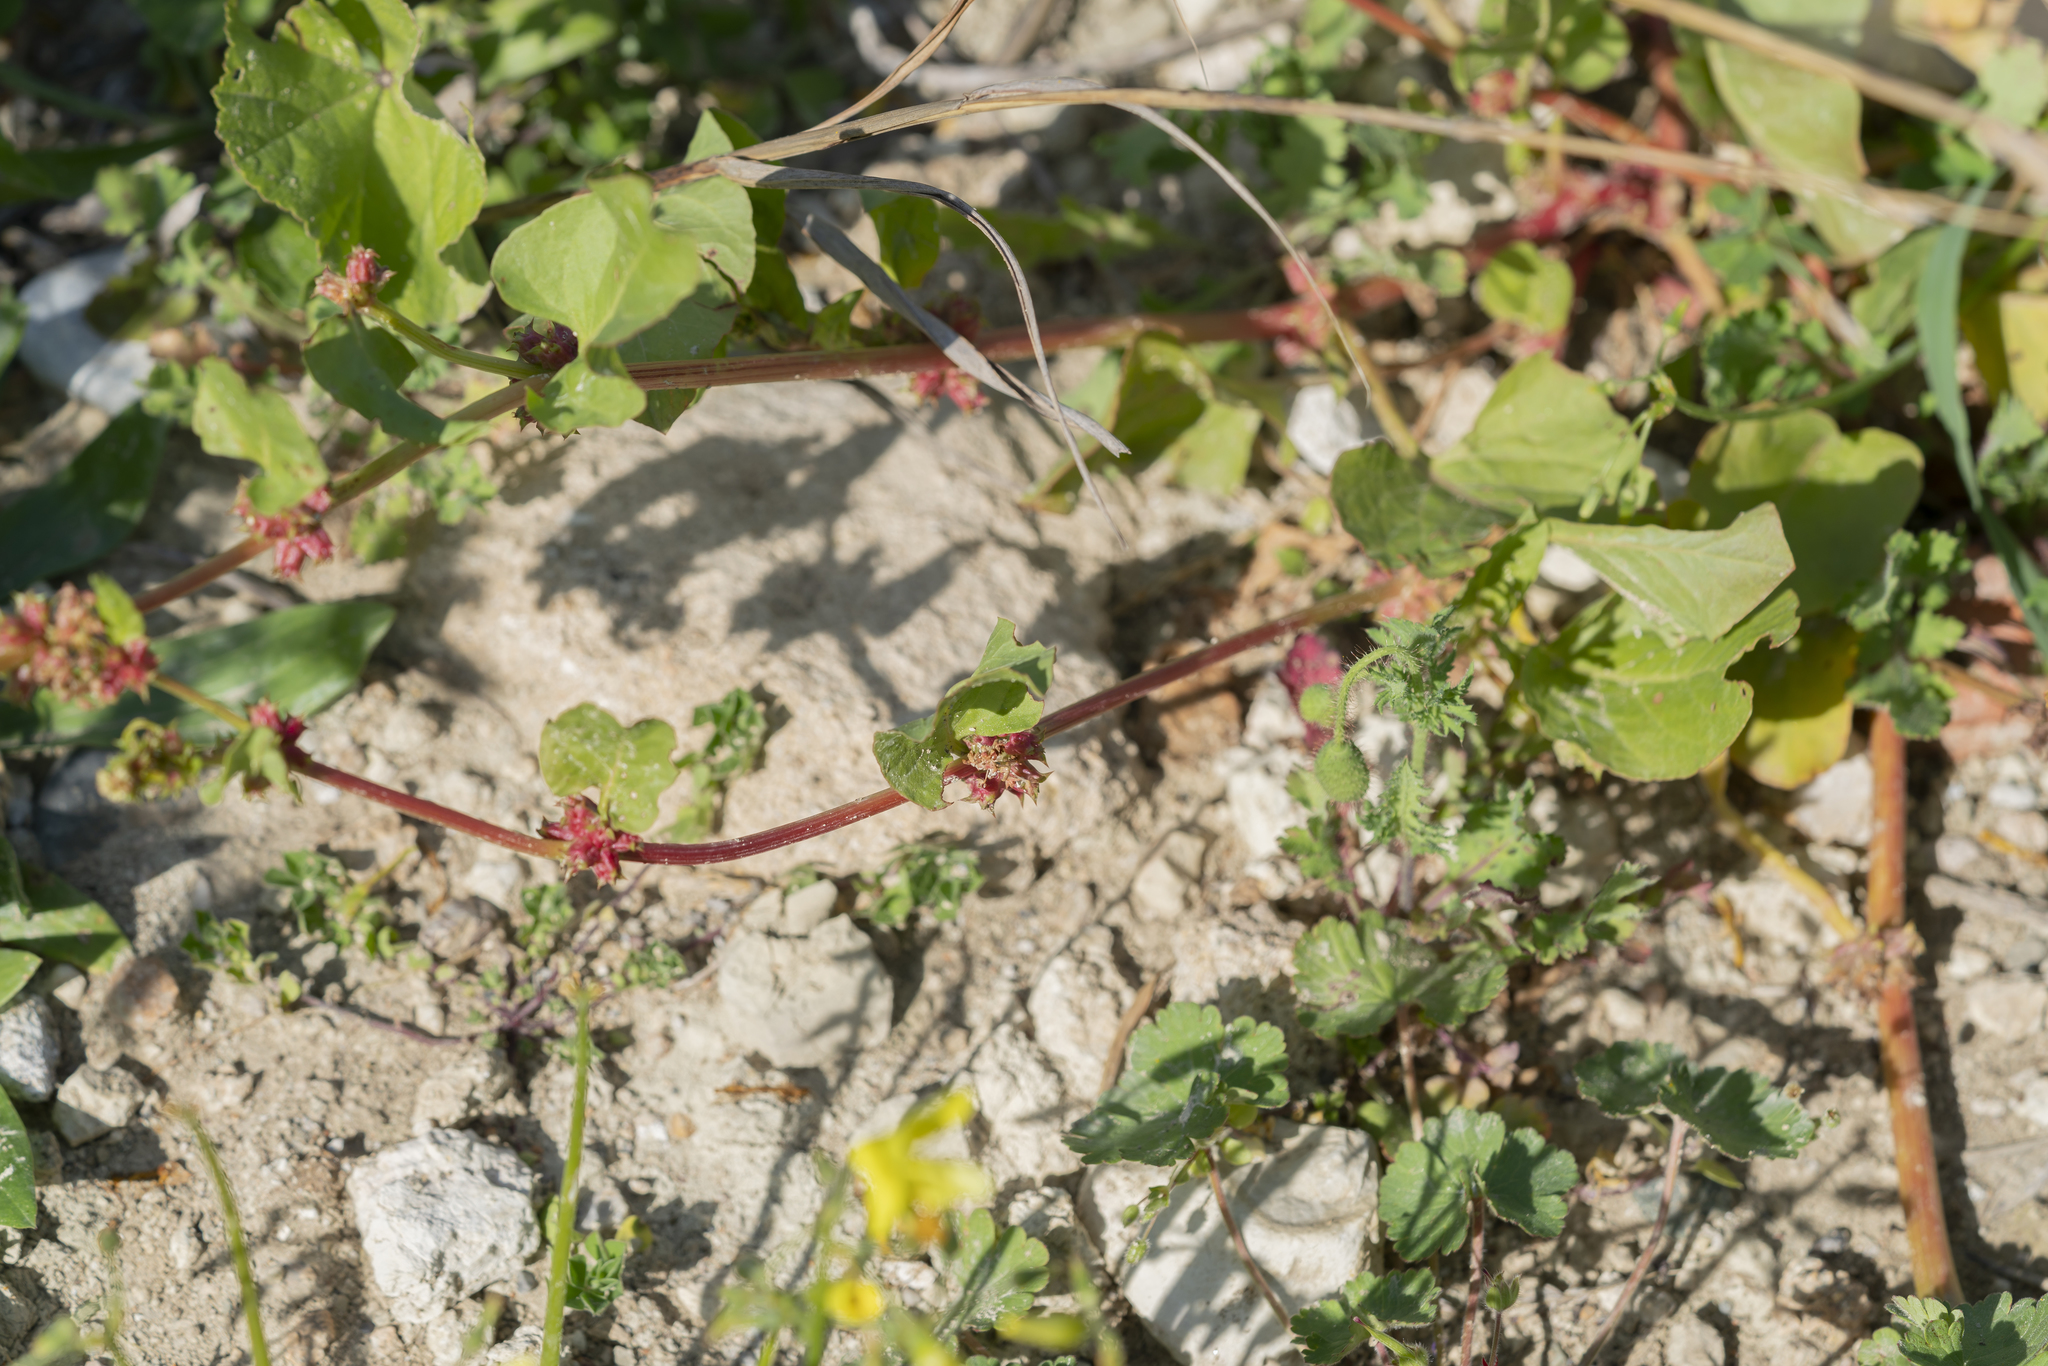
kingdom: Plantae
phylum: Tracheophyta
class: Magnoliopsida
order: Caryophyllales
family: Polygonaceae
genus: Rumex
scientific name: Rumex spinosus
